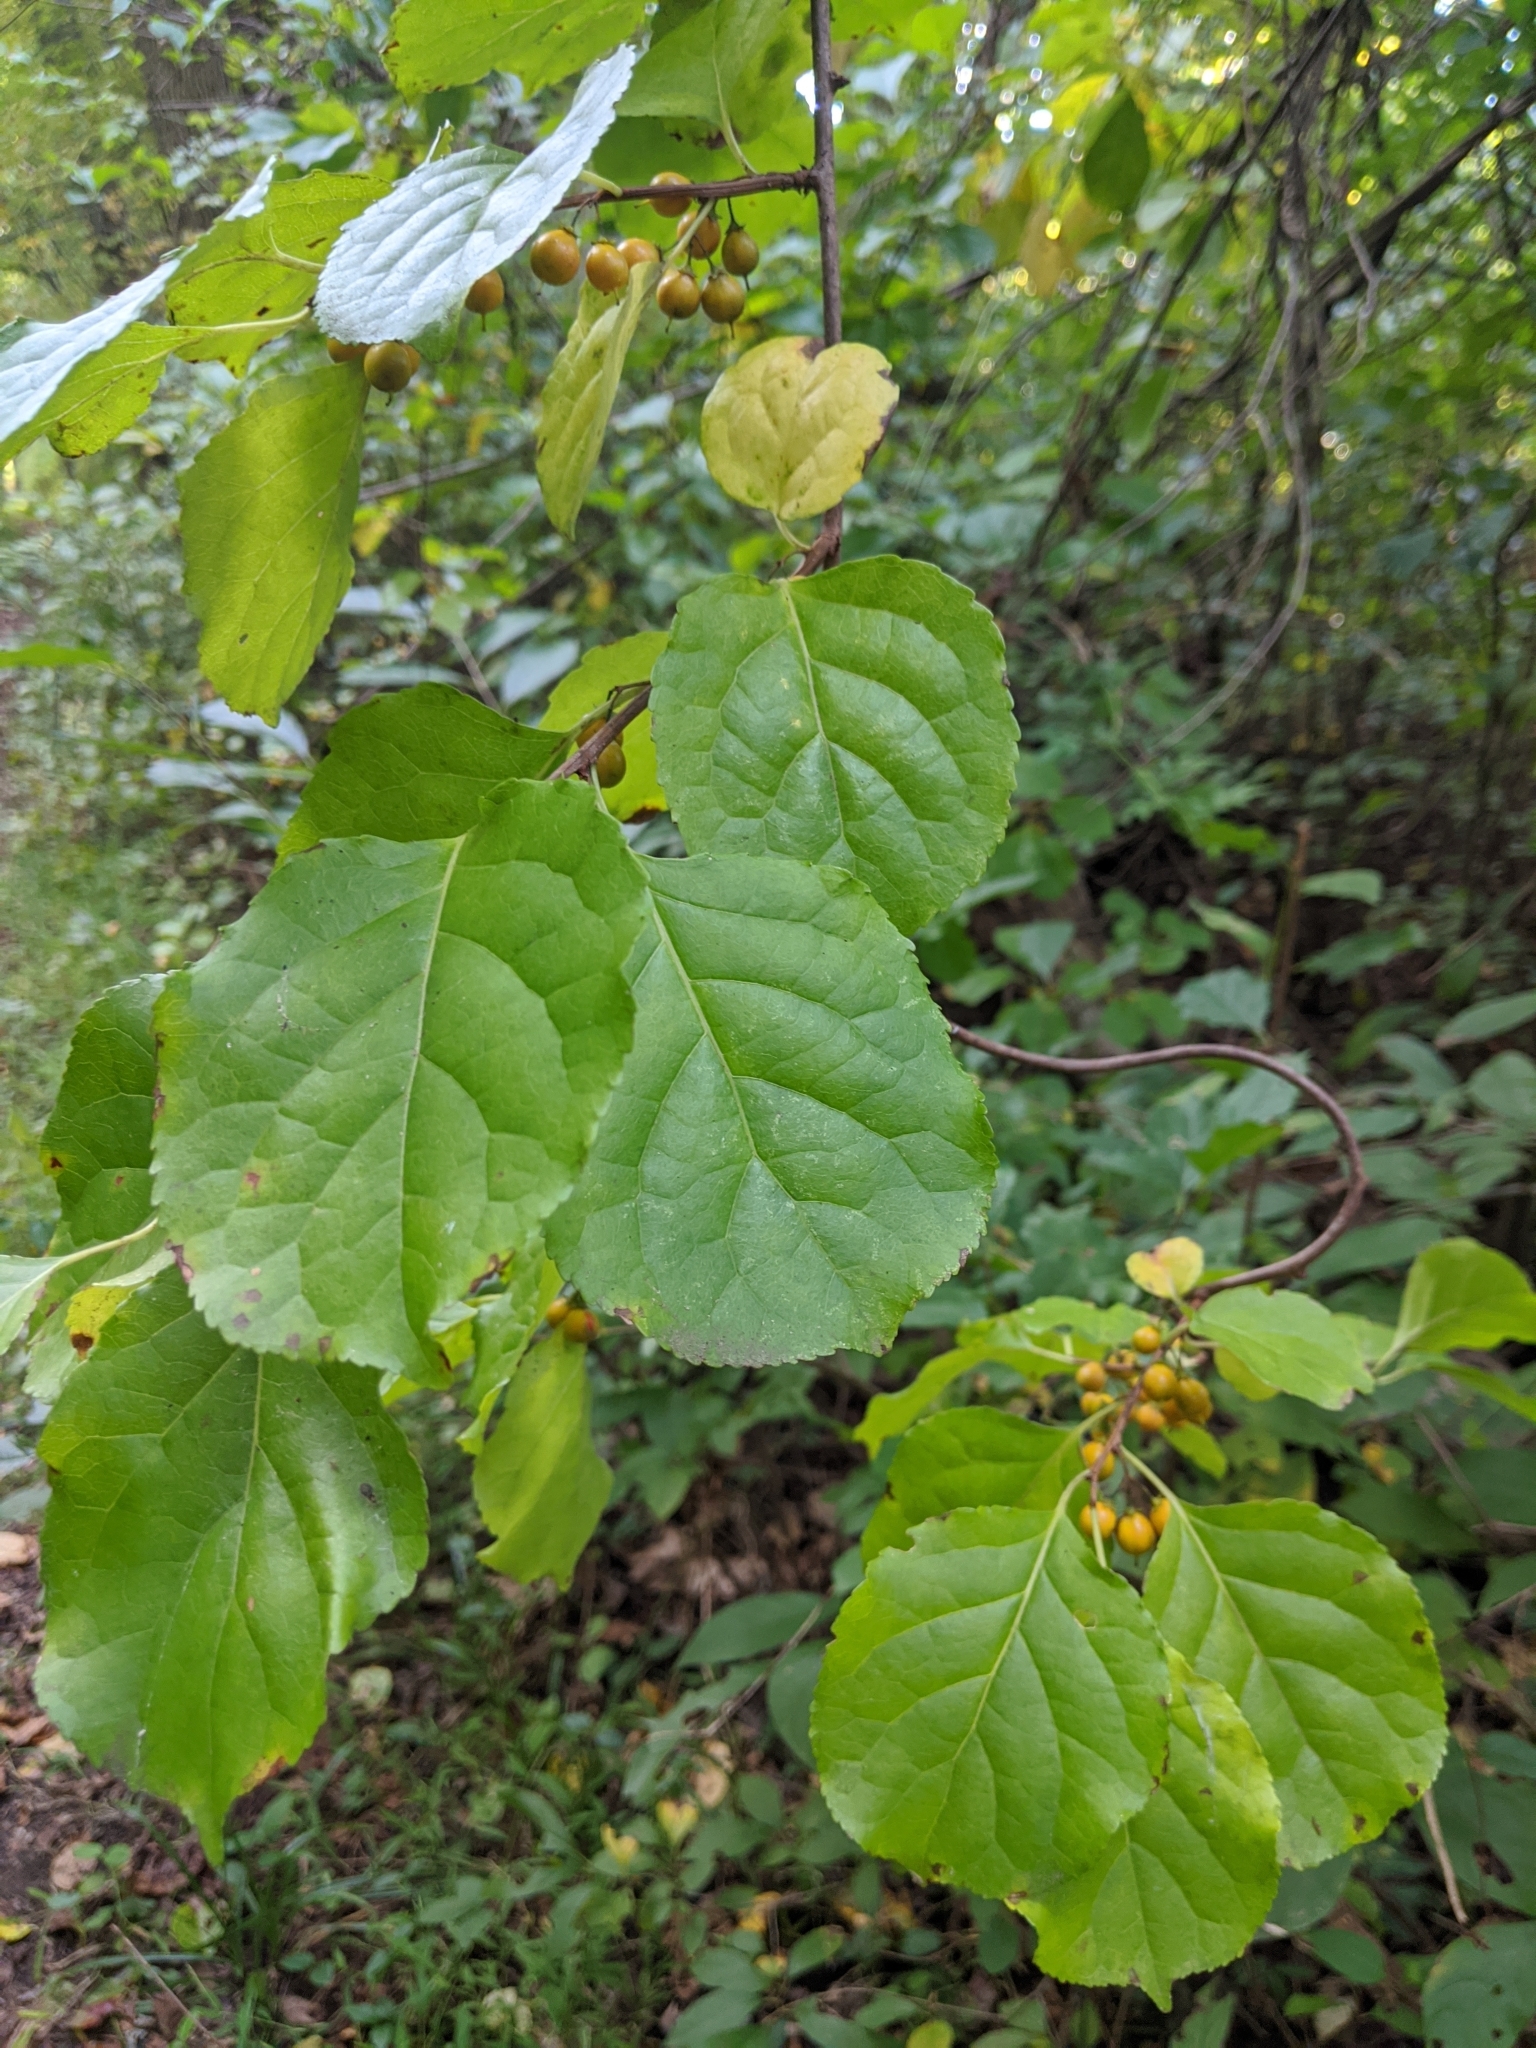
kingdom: Plantae
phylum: Tracheophyta
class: Magnoliopsida
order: Celastrales
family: Celastraceae
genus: Celastrus
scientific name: Celastrus orbiculatus
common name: Oriental bittersweet
